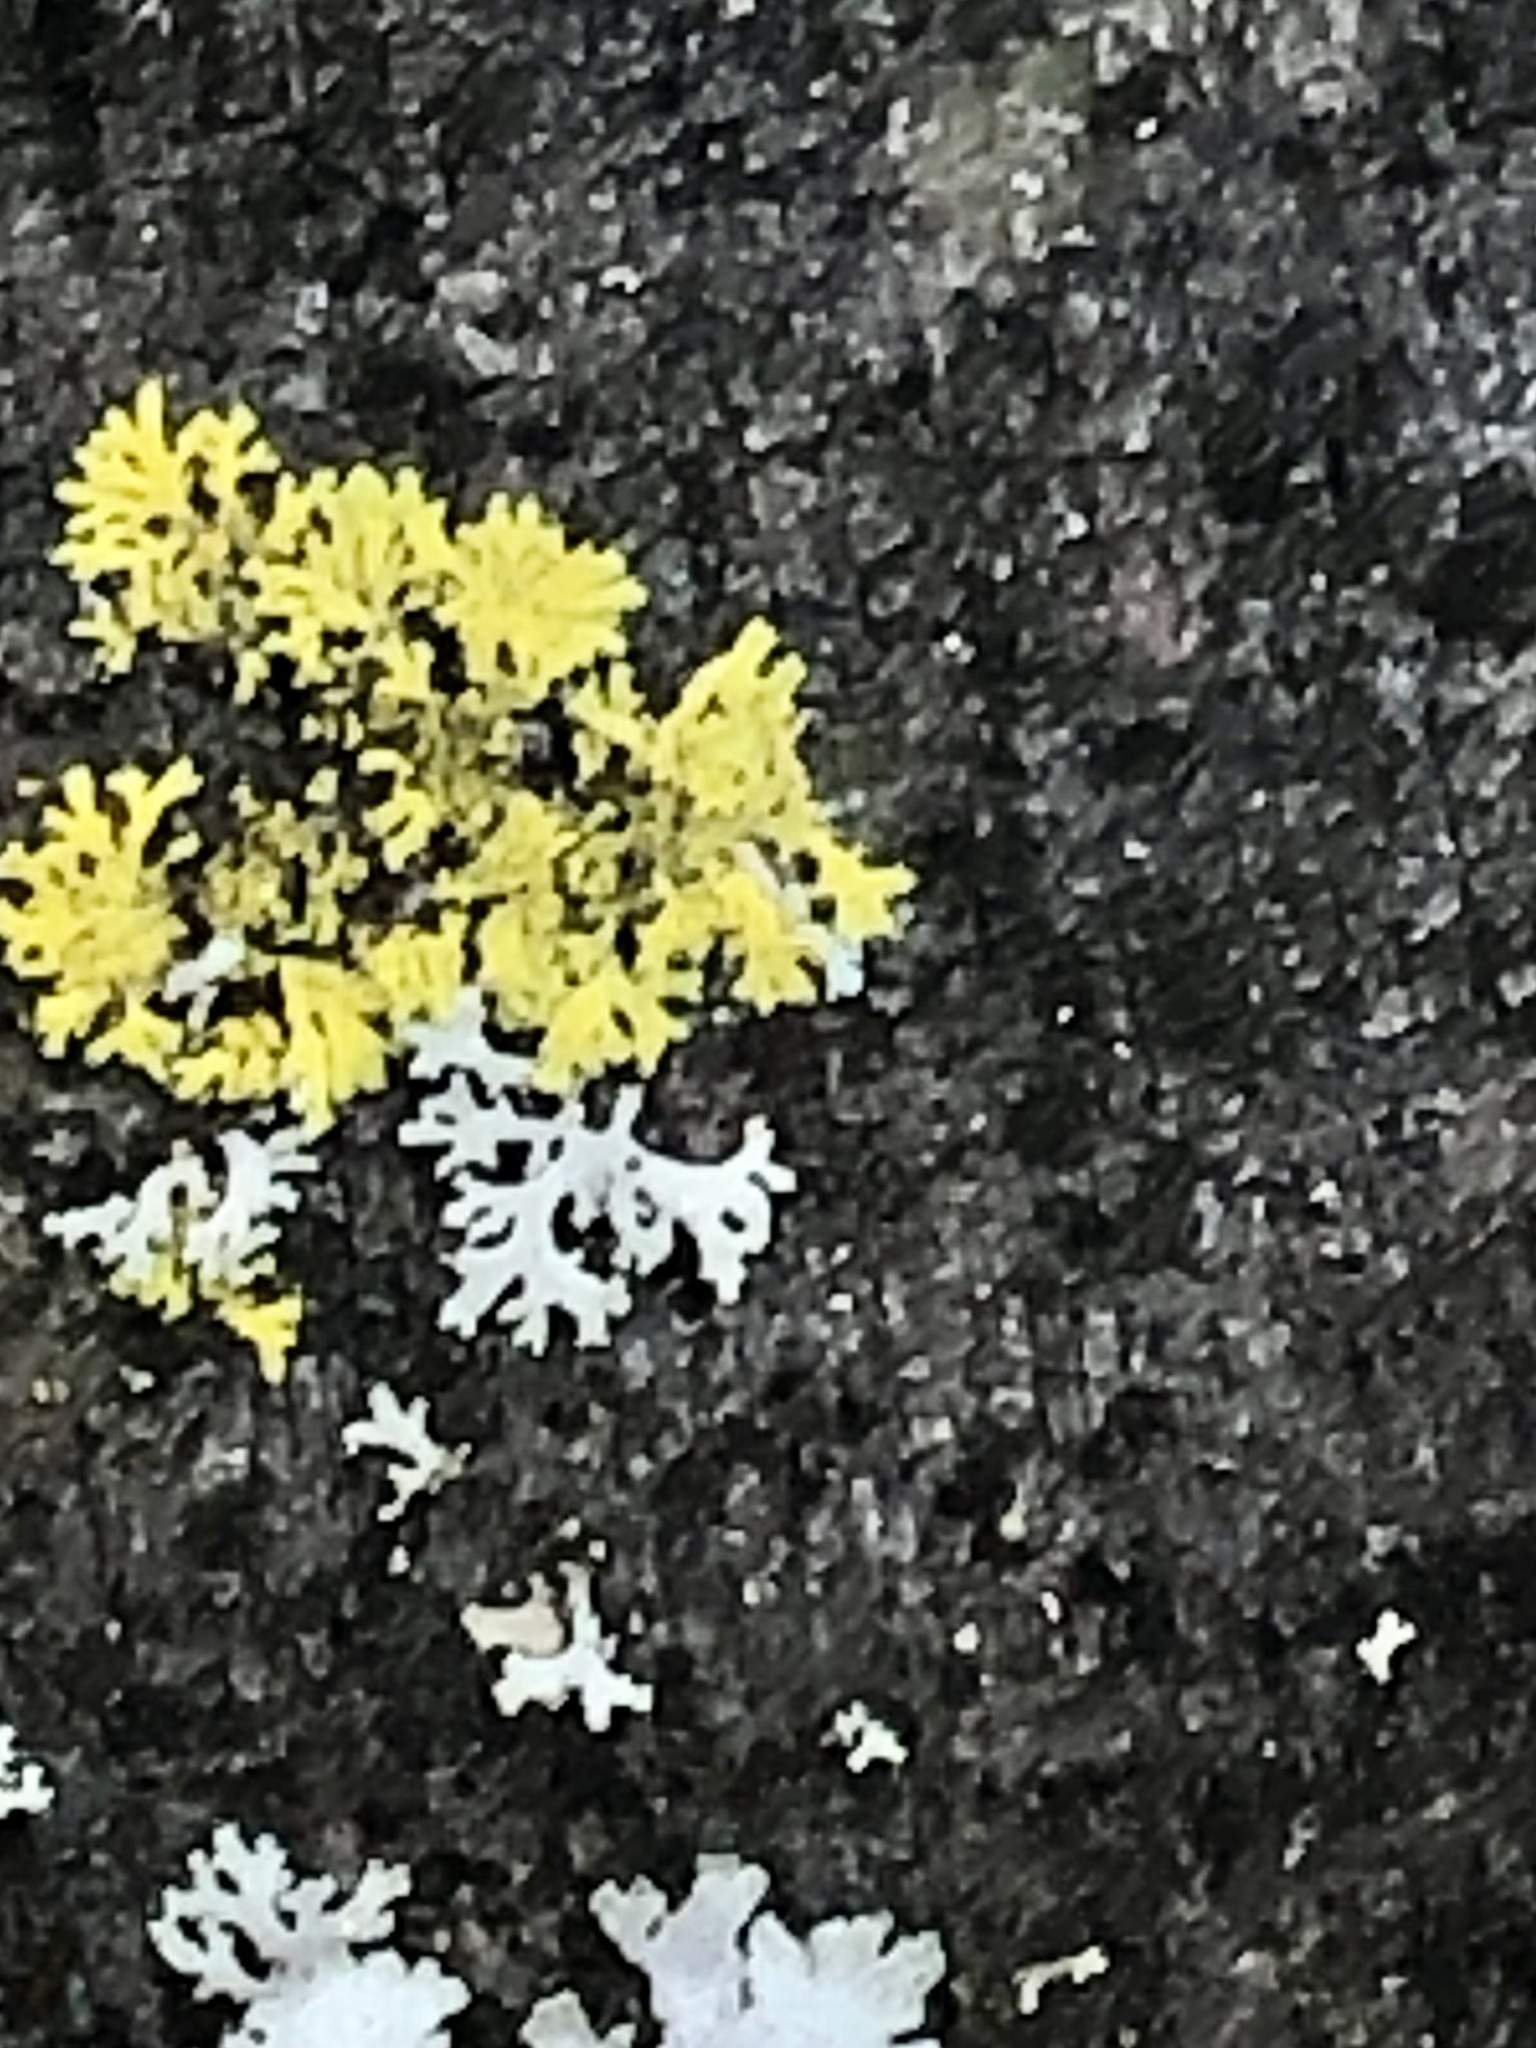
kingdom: Fungi
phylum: Ascomycota
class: Candelariomycetes
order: Candelariales
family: Candelariaceae
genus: Candelaria
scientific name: Candelaria concolor
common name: Candleflame lichen
